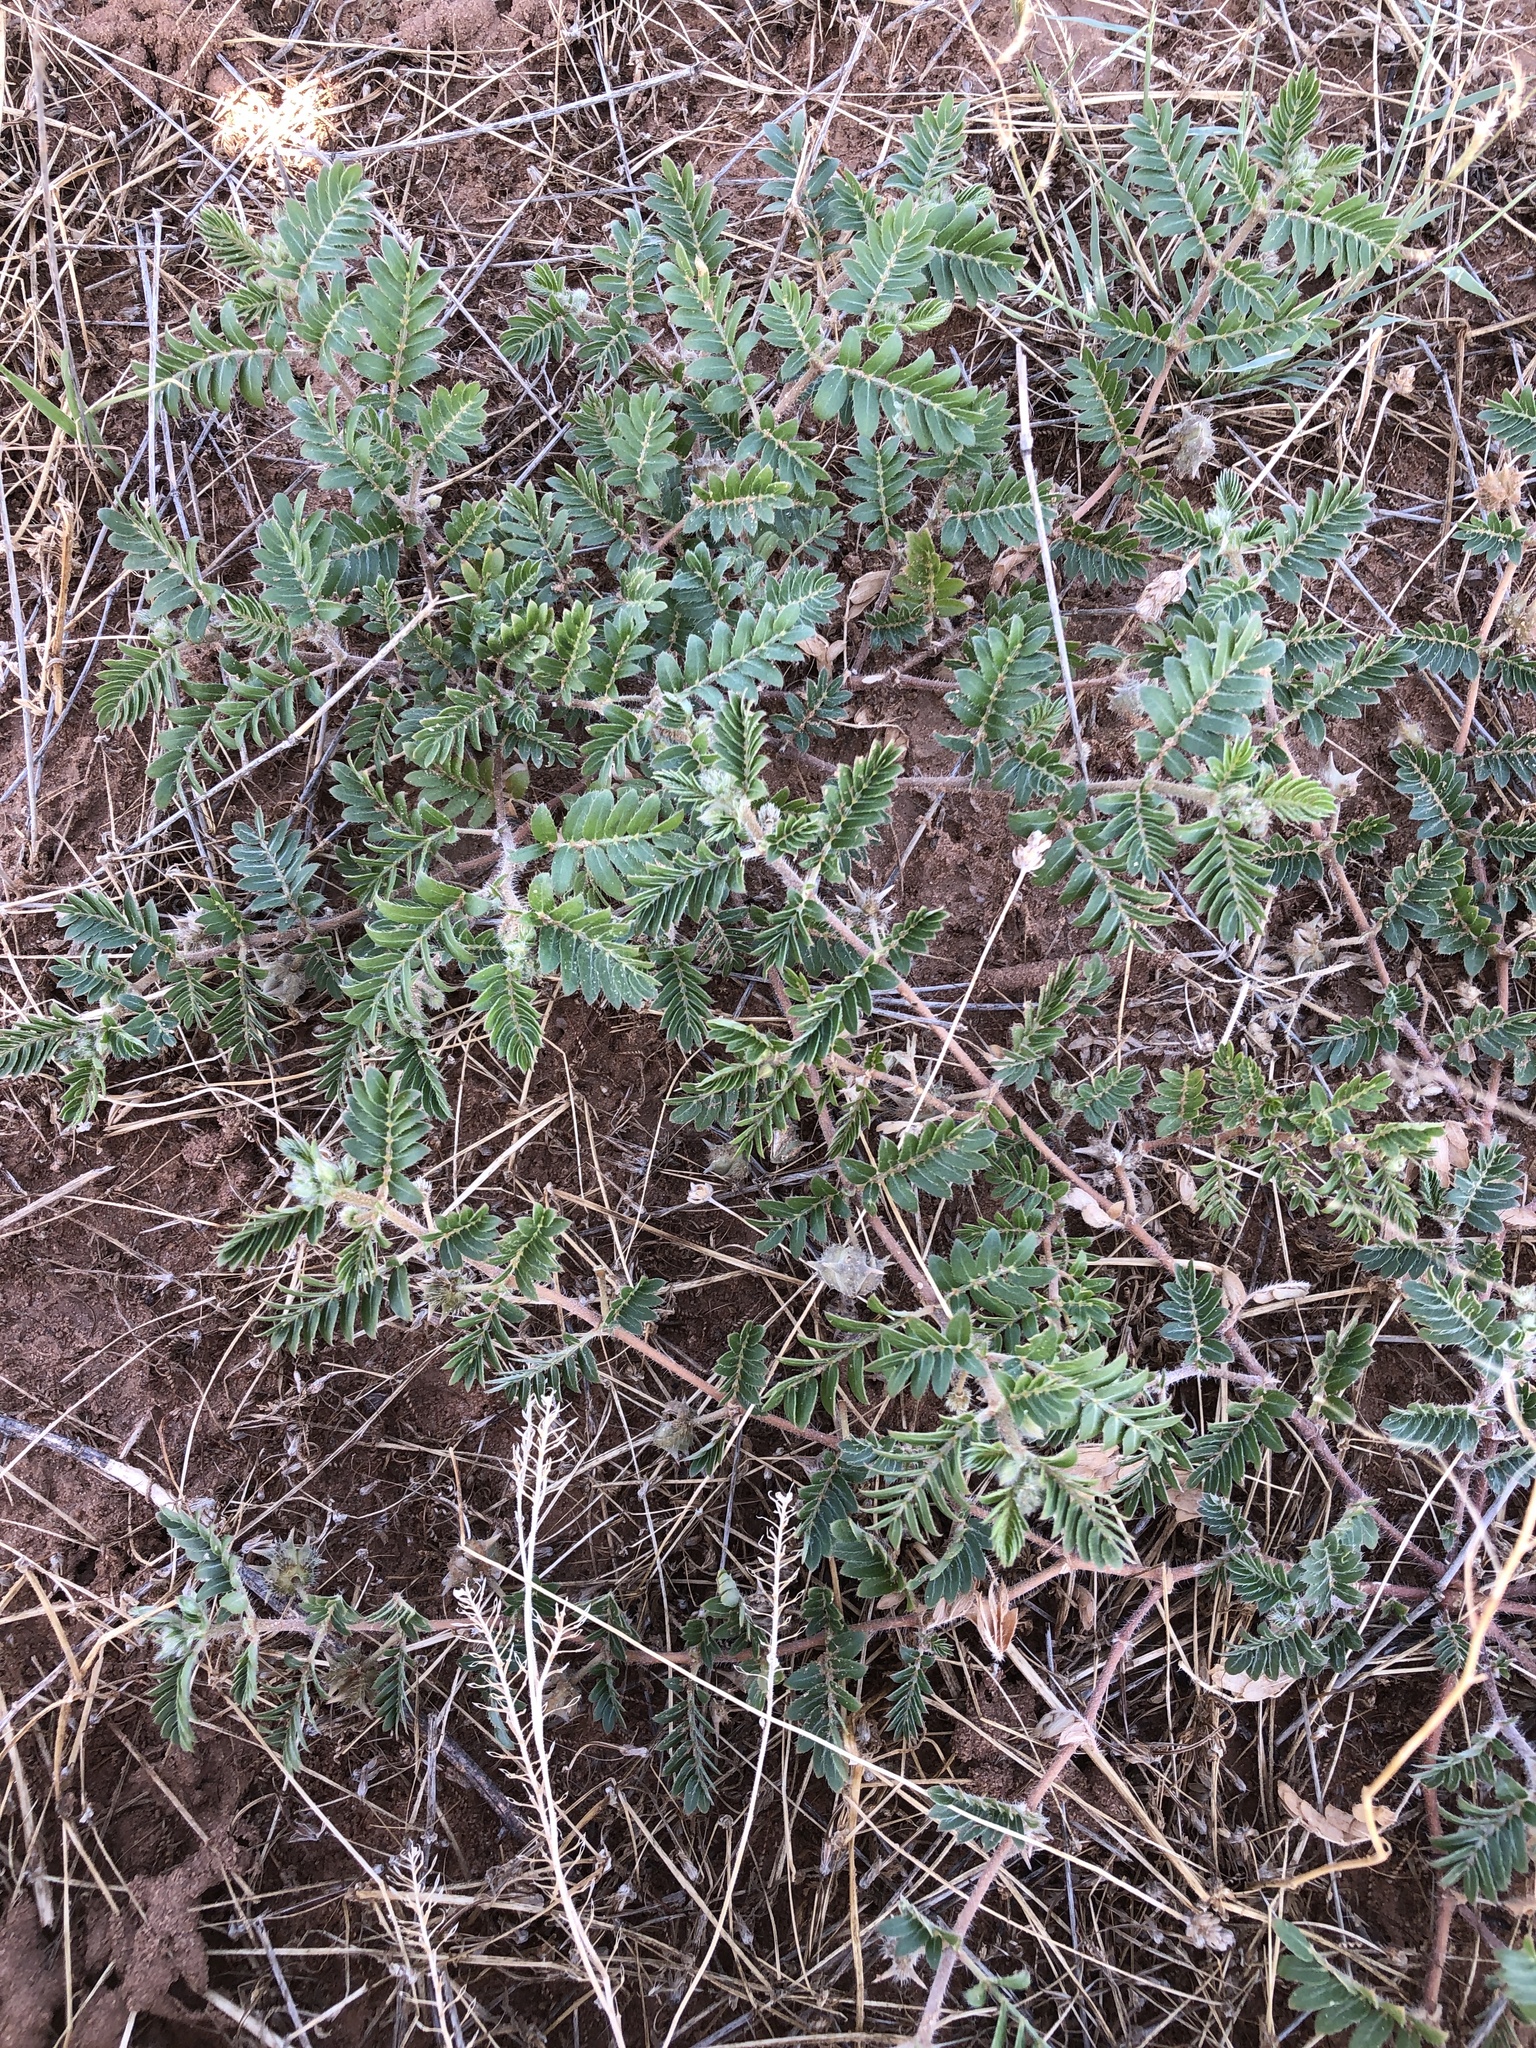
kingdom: Plantae
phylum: Tracheophyta
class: Magnoliopsida
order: Zygophyllales
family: Zygophyllaceae
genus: Tribulus
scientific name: Tribulus terrestris
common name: Puncturevine
